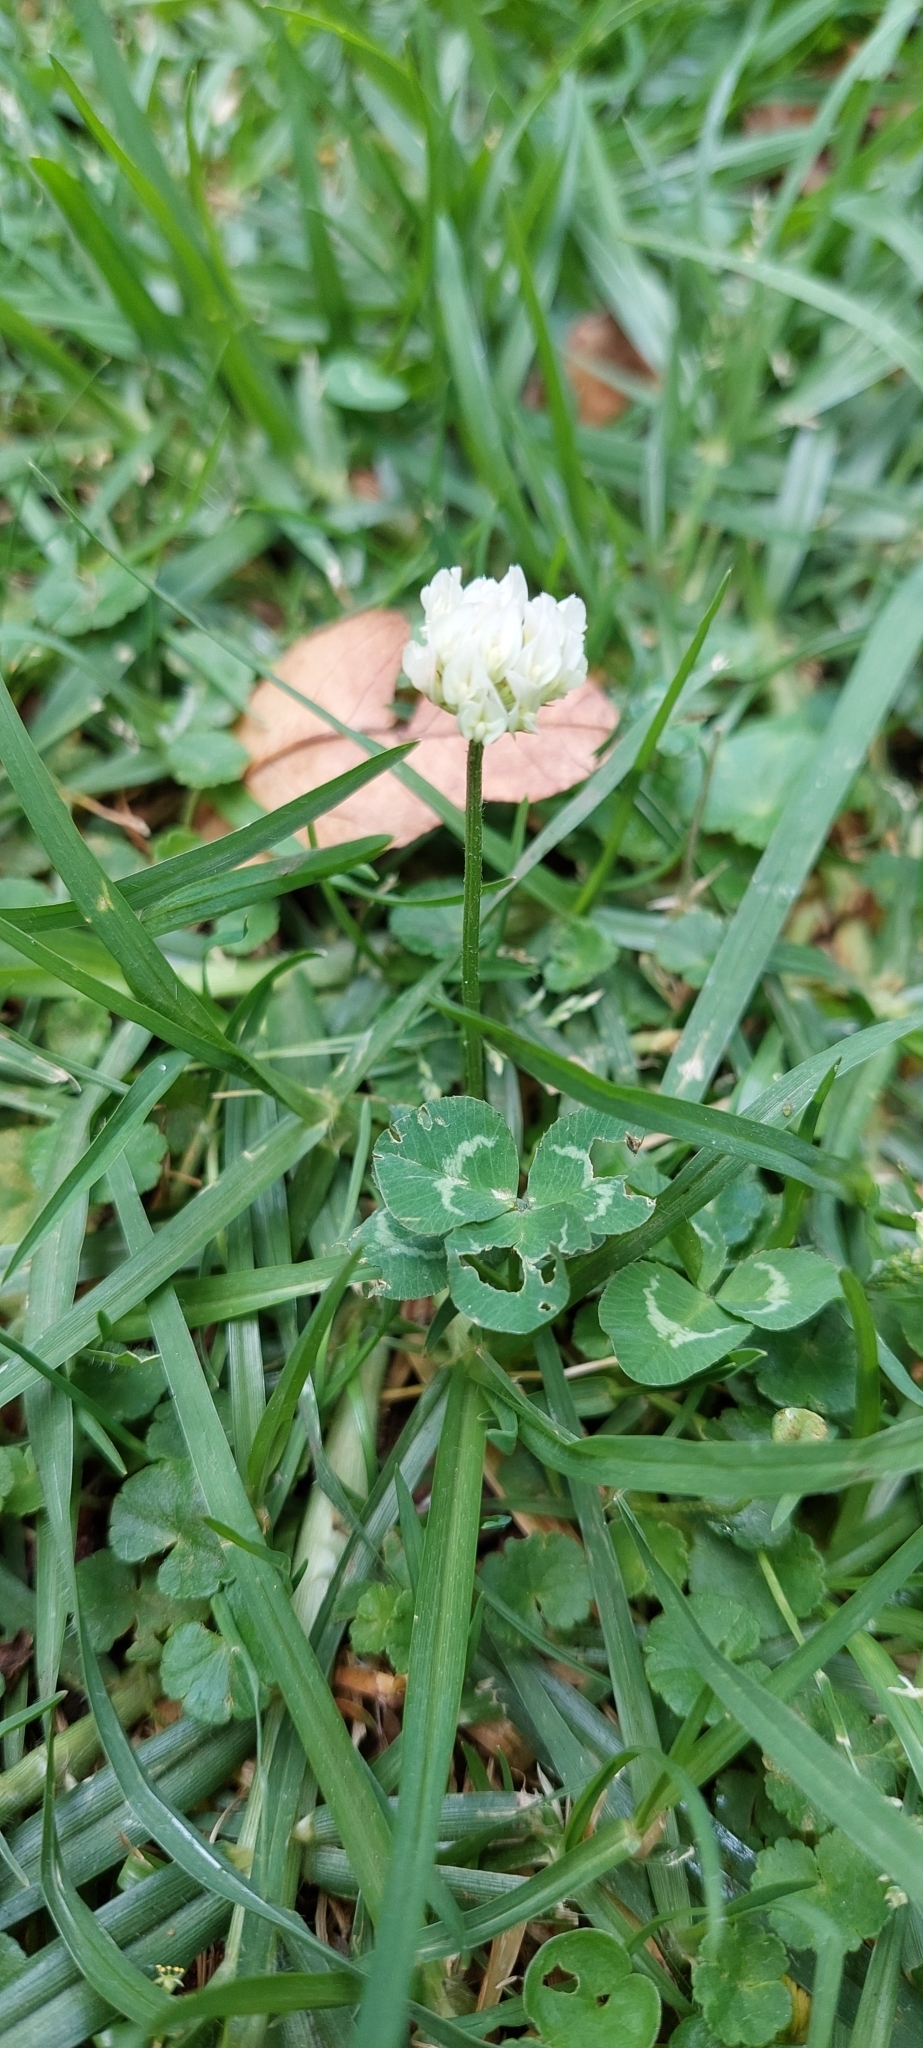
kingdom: Plantae
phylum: Tracheophyta
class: Magnoliopsida
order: Fabales
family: Fabaceae
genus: Trifolium
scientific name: Trifolium repens
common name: White clover
